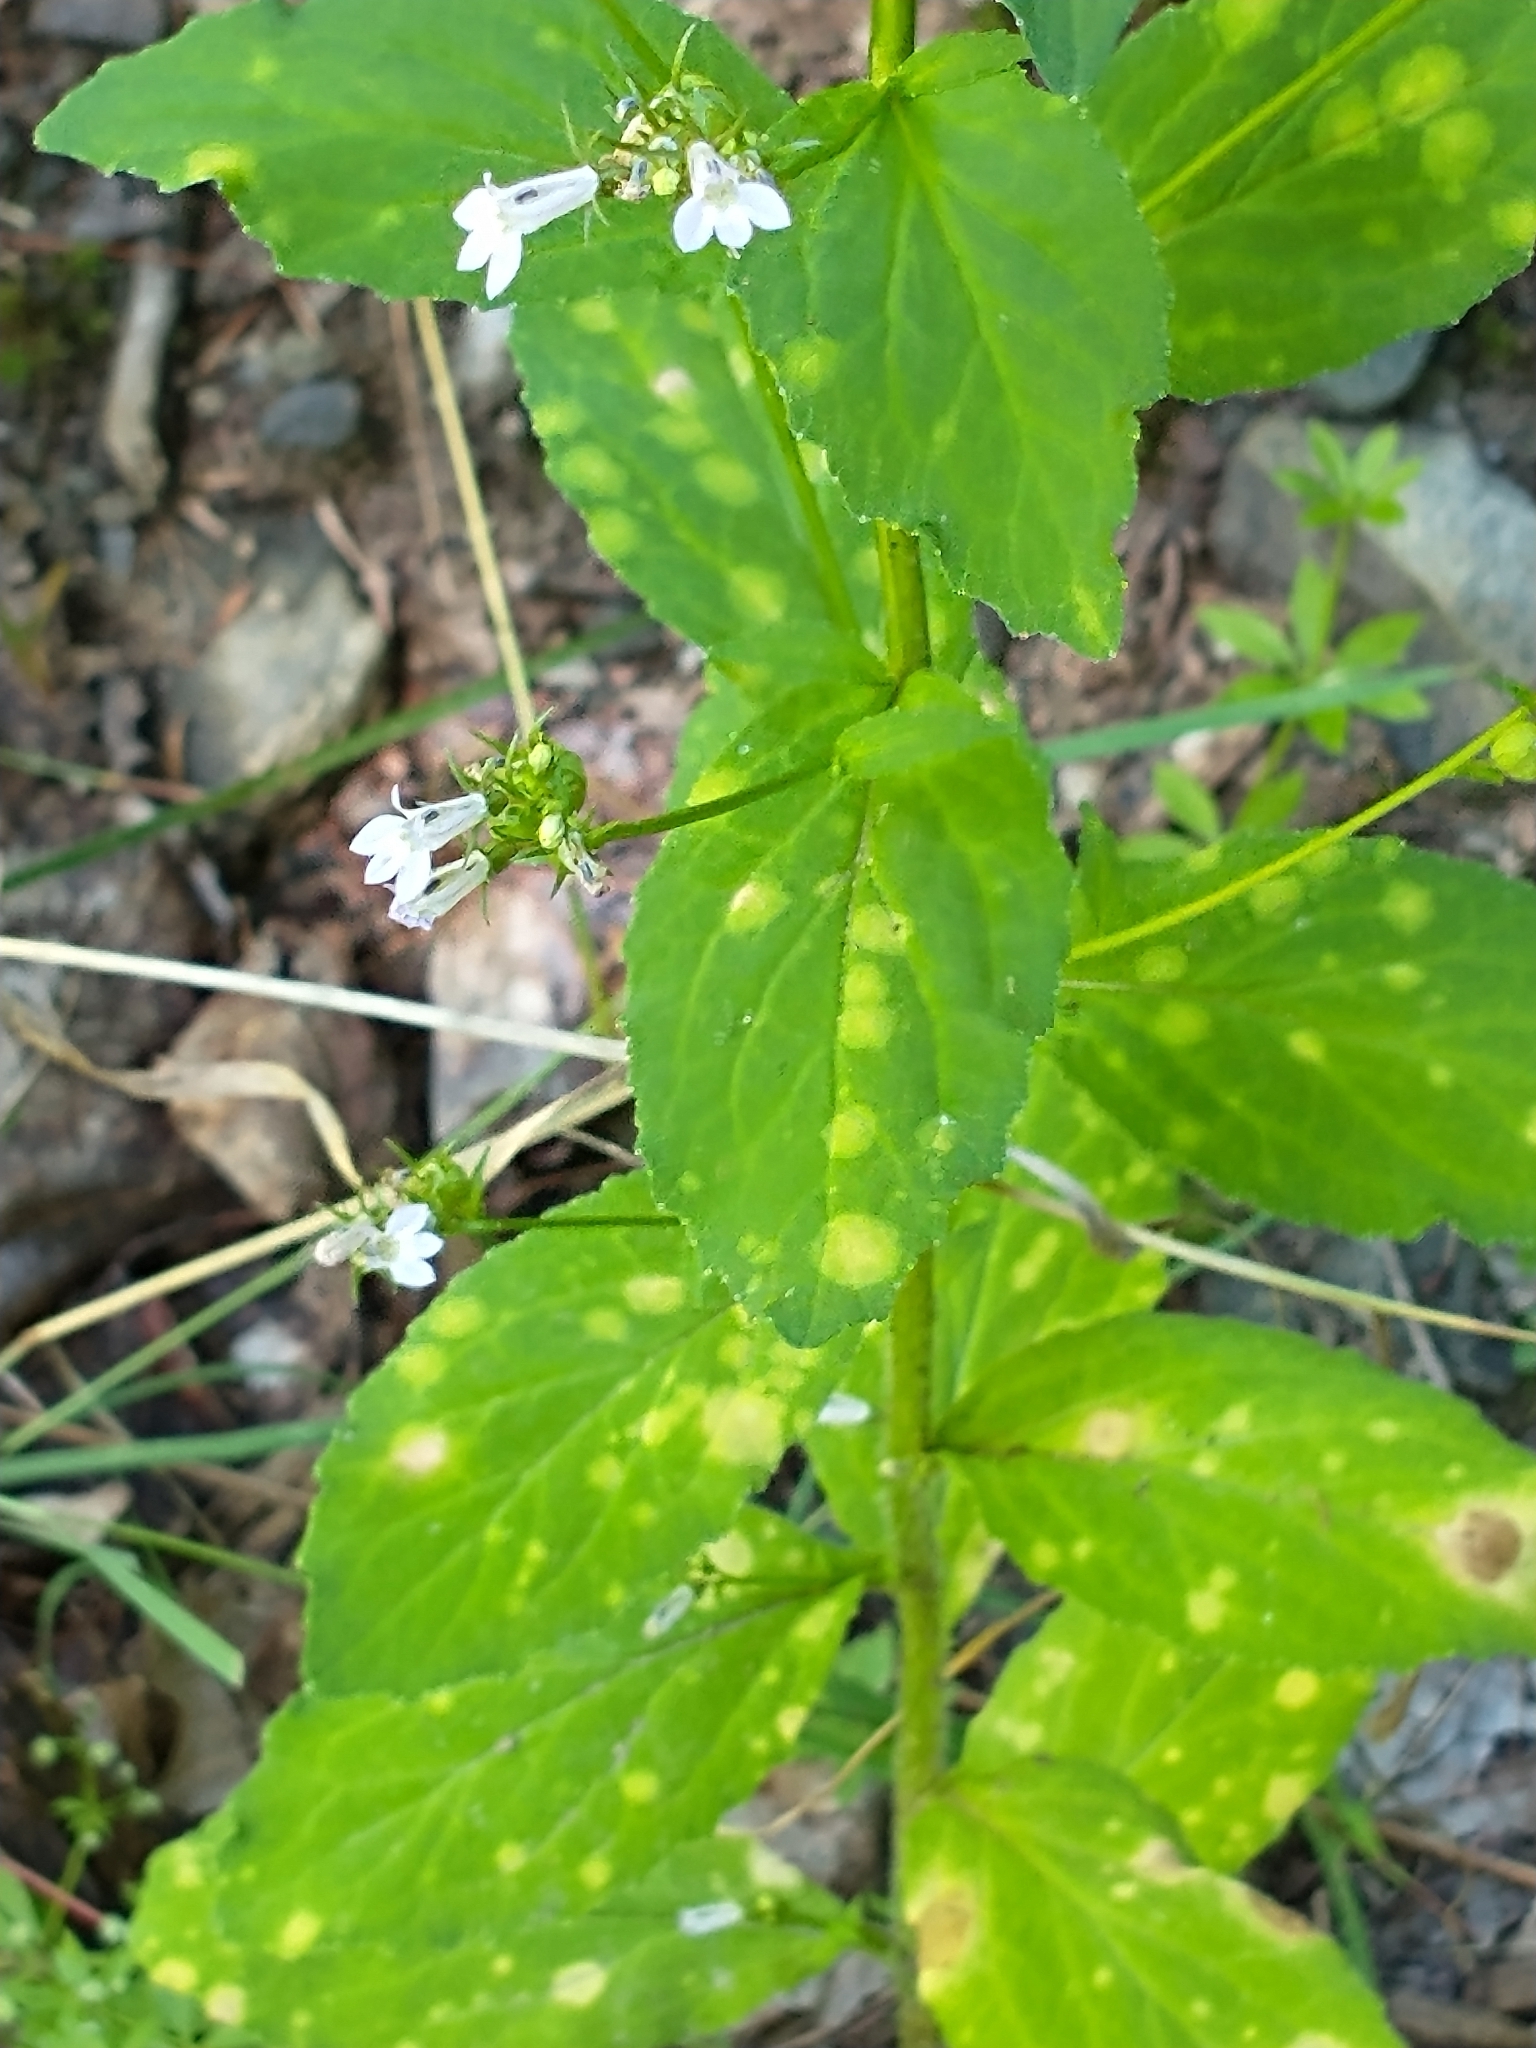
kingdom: Plantae
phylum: Tracheophyta
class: Magnoliopsida
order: Asterales
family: Campanulaceae
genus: Lobelia
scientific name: Lobelia inflata
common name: Indian tobacco
